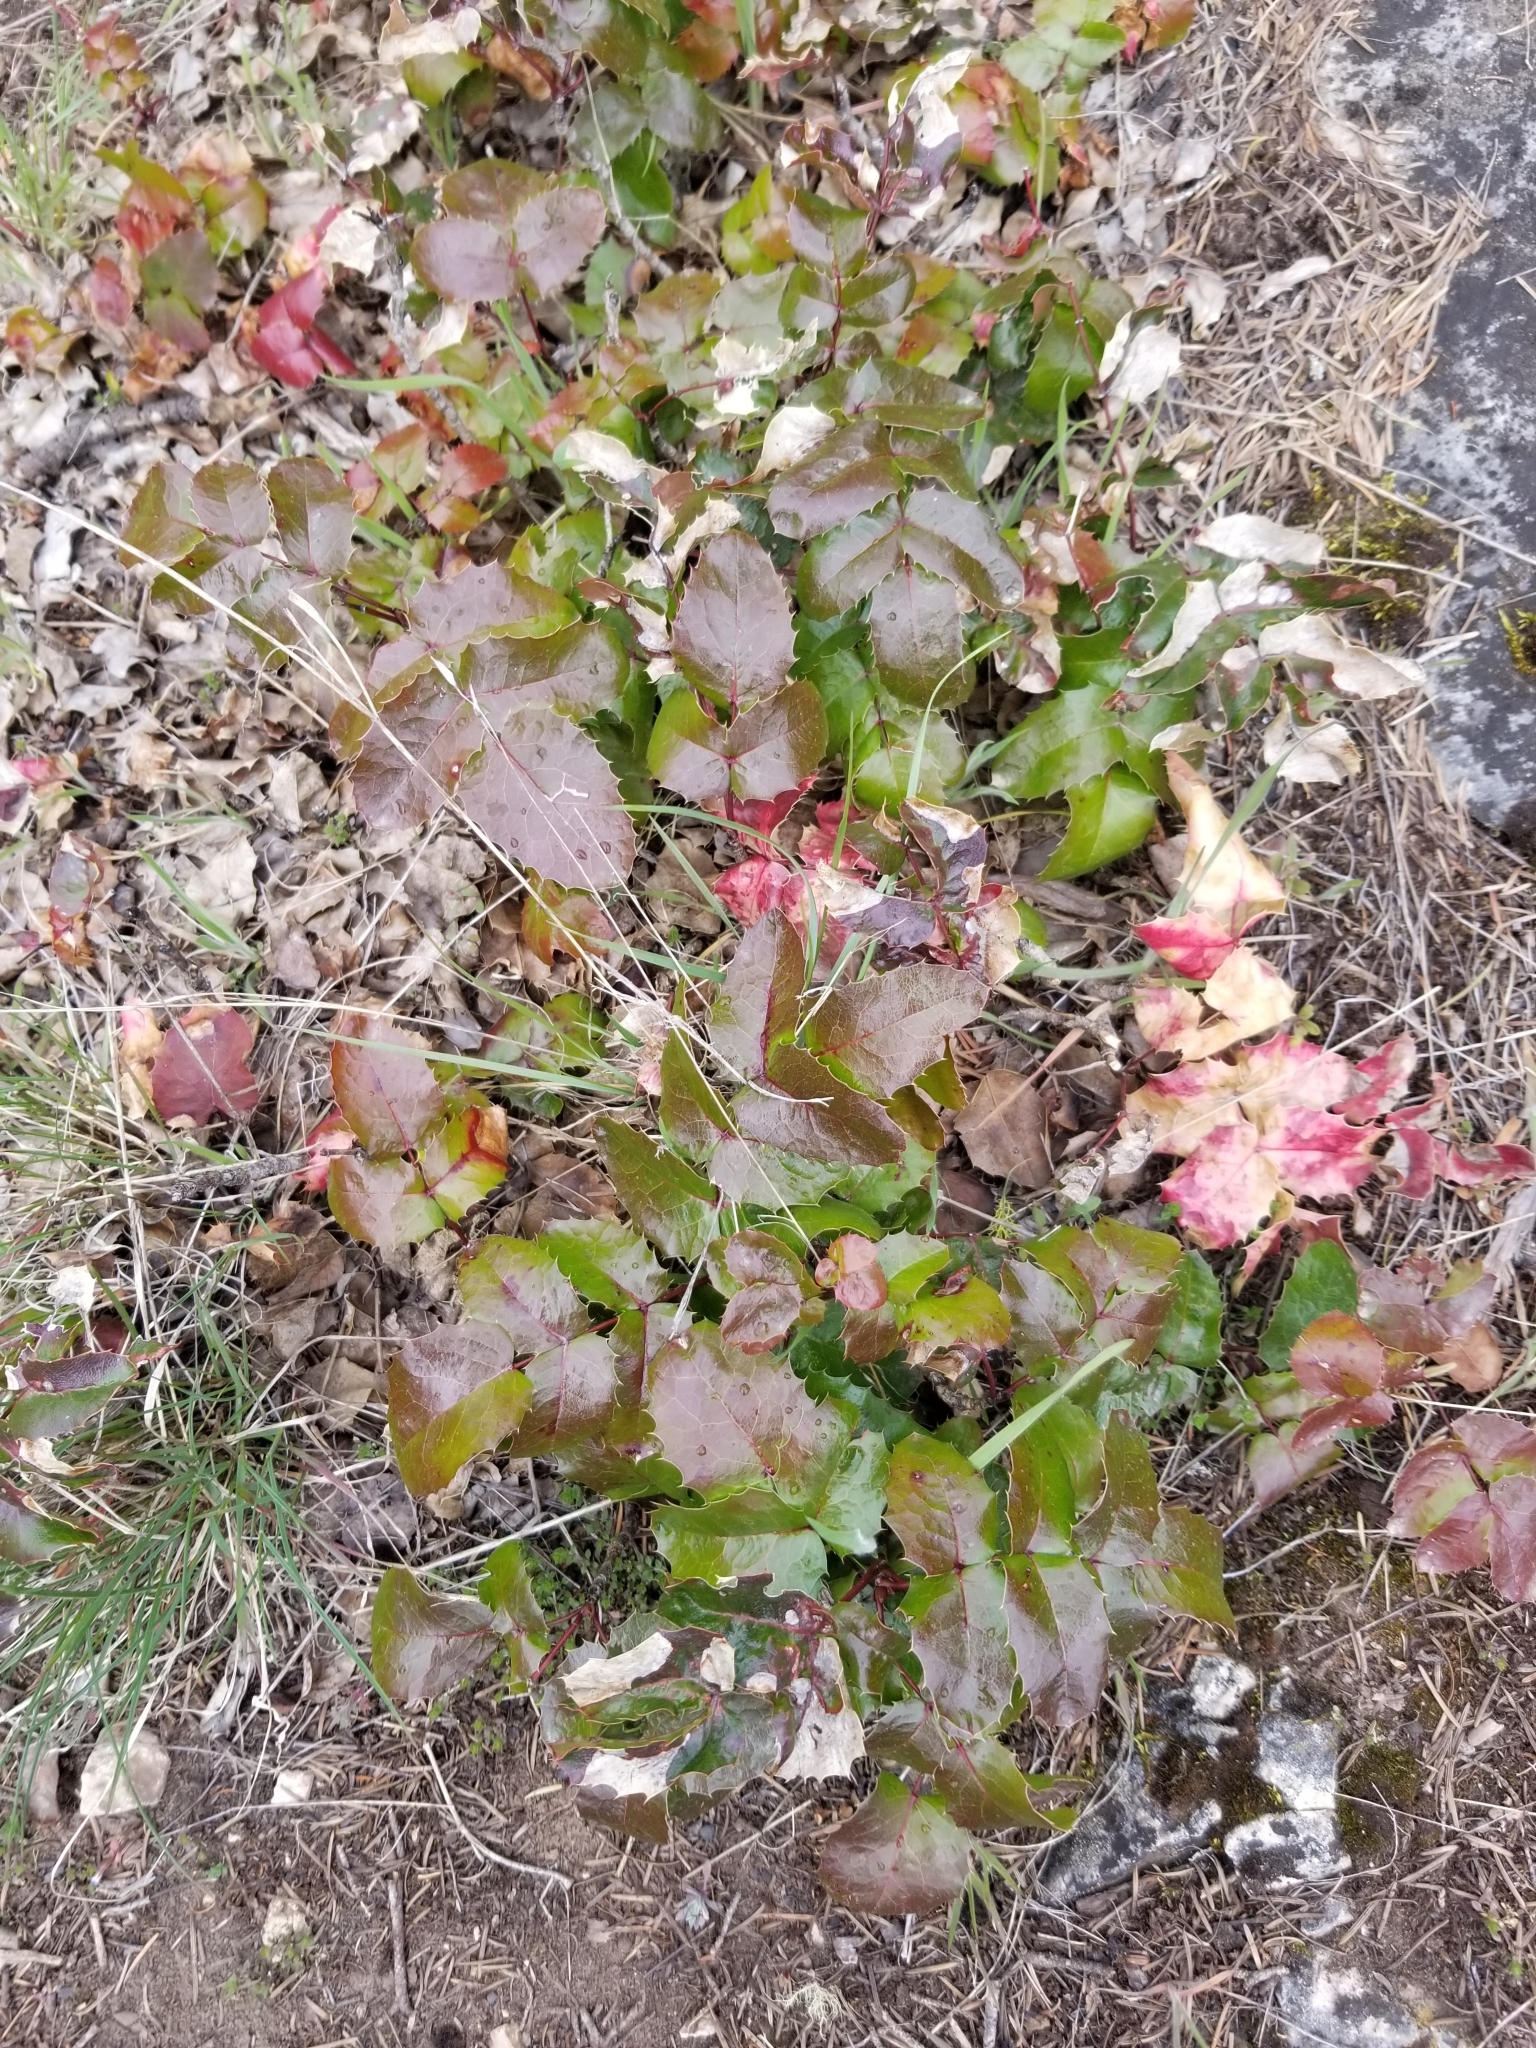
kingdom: Plantae
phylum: Tracheophyta
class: Magnoliopsida
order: Ranunculales
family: Berberidaceae
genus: Mahonia
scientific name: Mahonia aquifolium
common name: Oregon-grape
